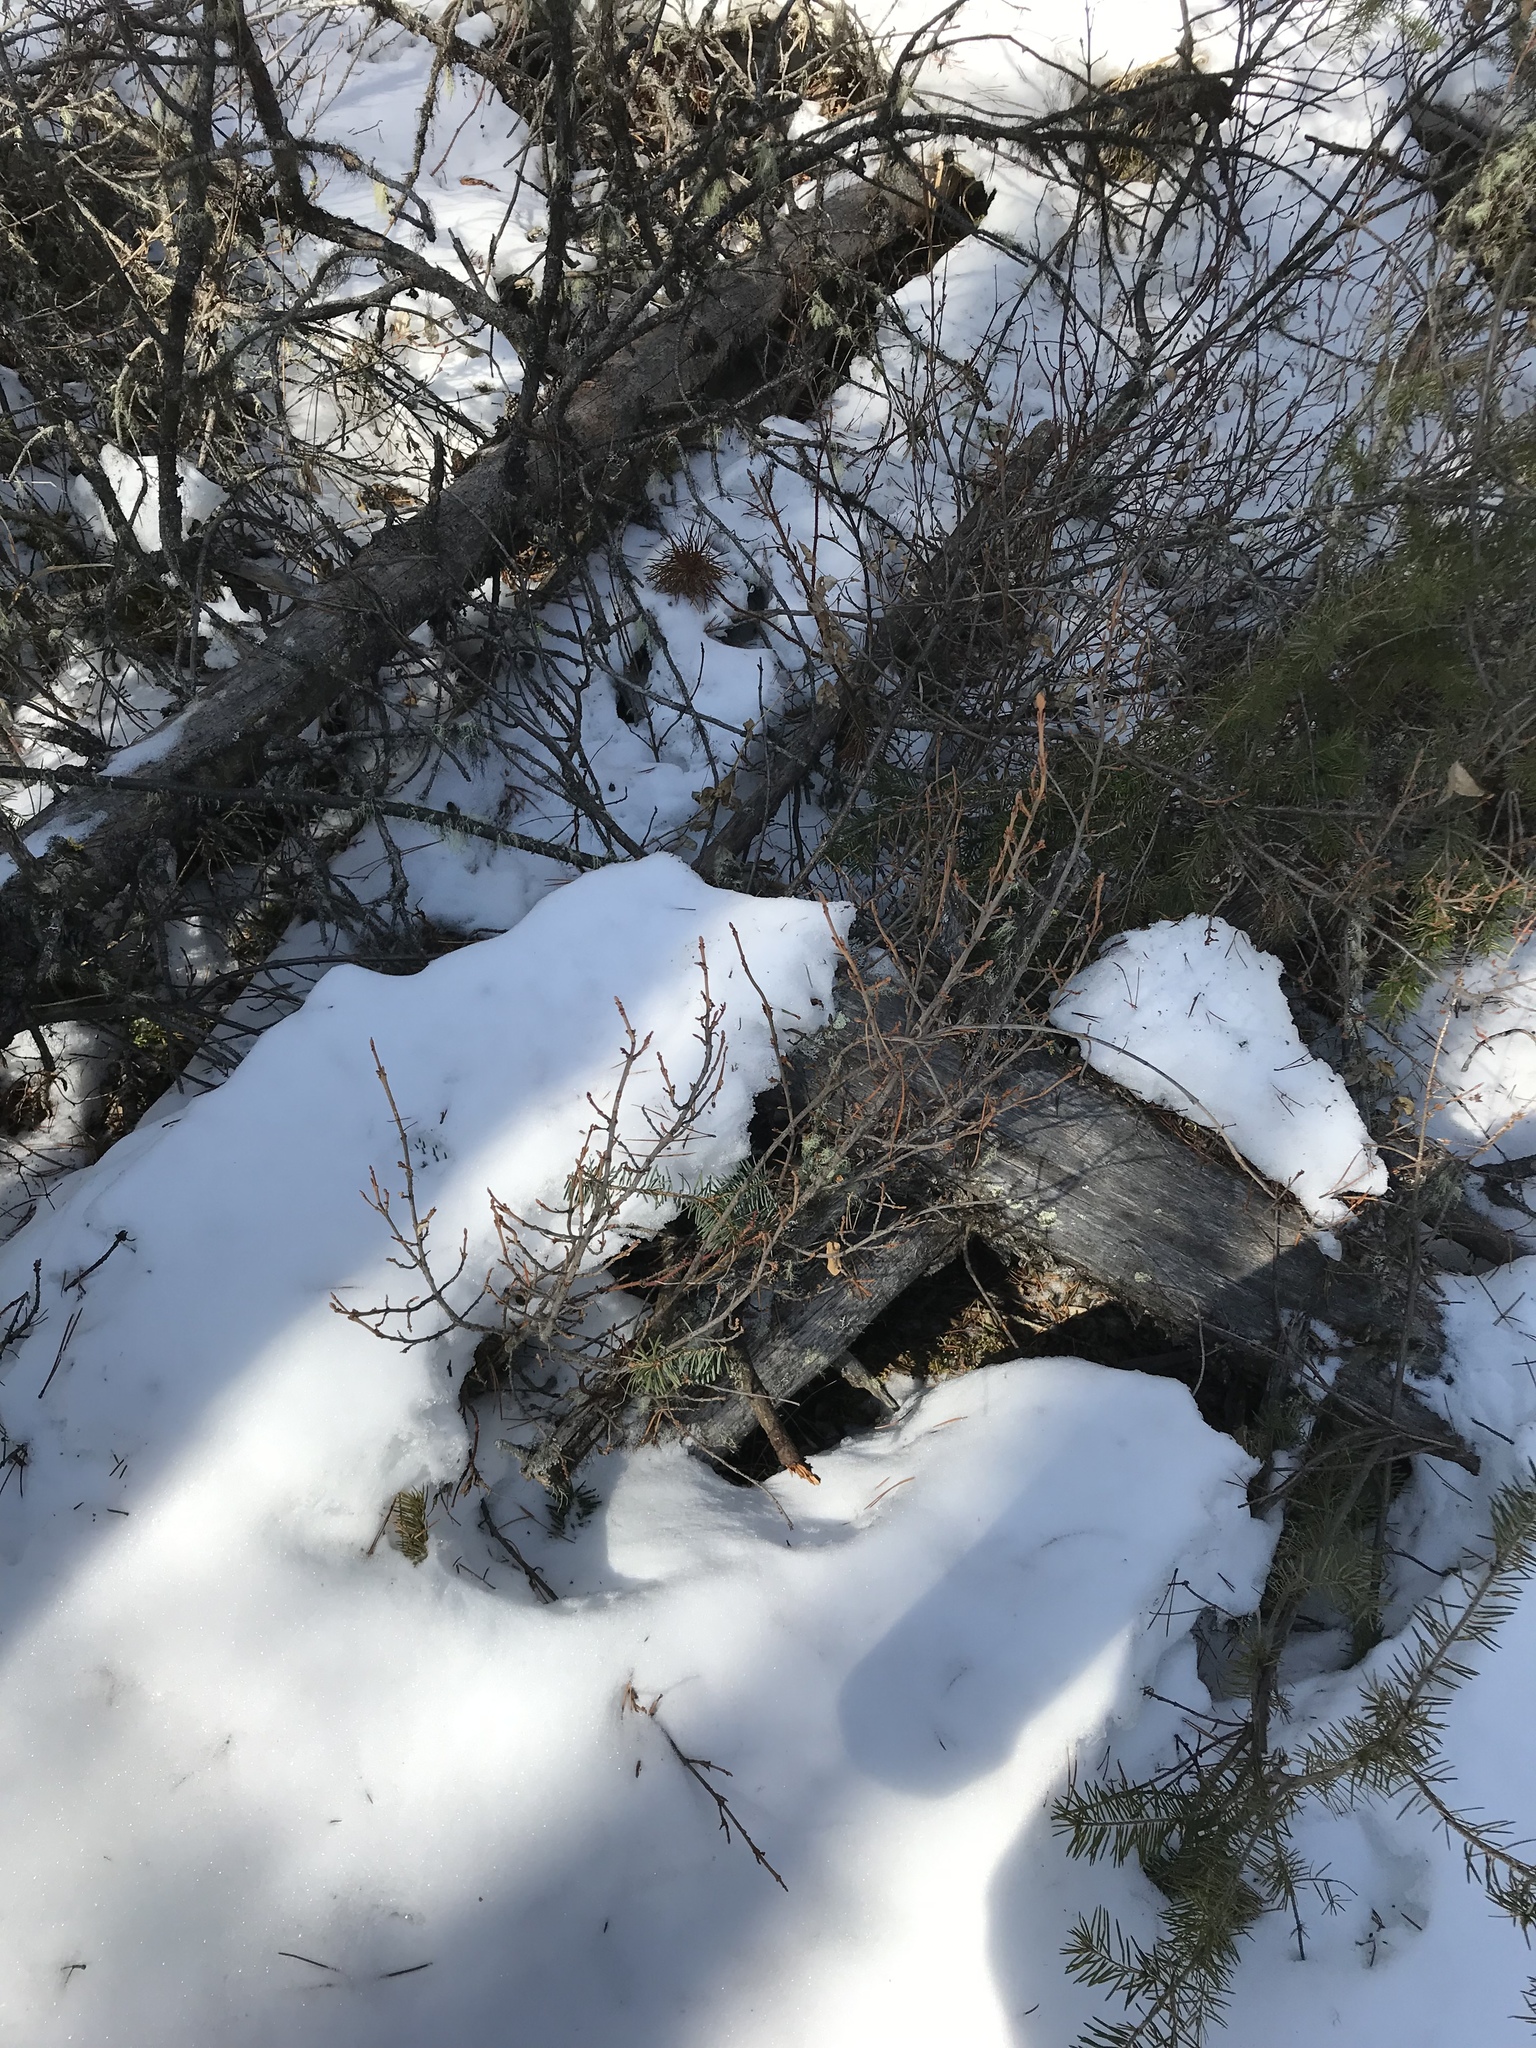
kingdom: Plantae
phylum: Tracheophyta
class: Magnoliopsida
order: Rosales
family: Elaeagnaceae
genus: Shepherdia
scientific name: Shepherdia canadensis
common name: Soapberry
